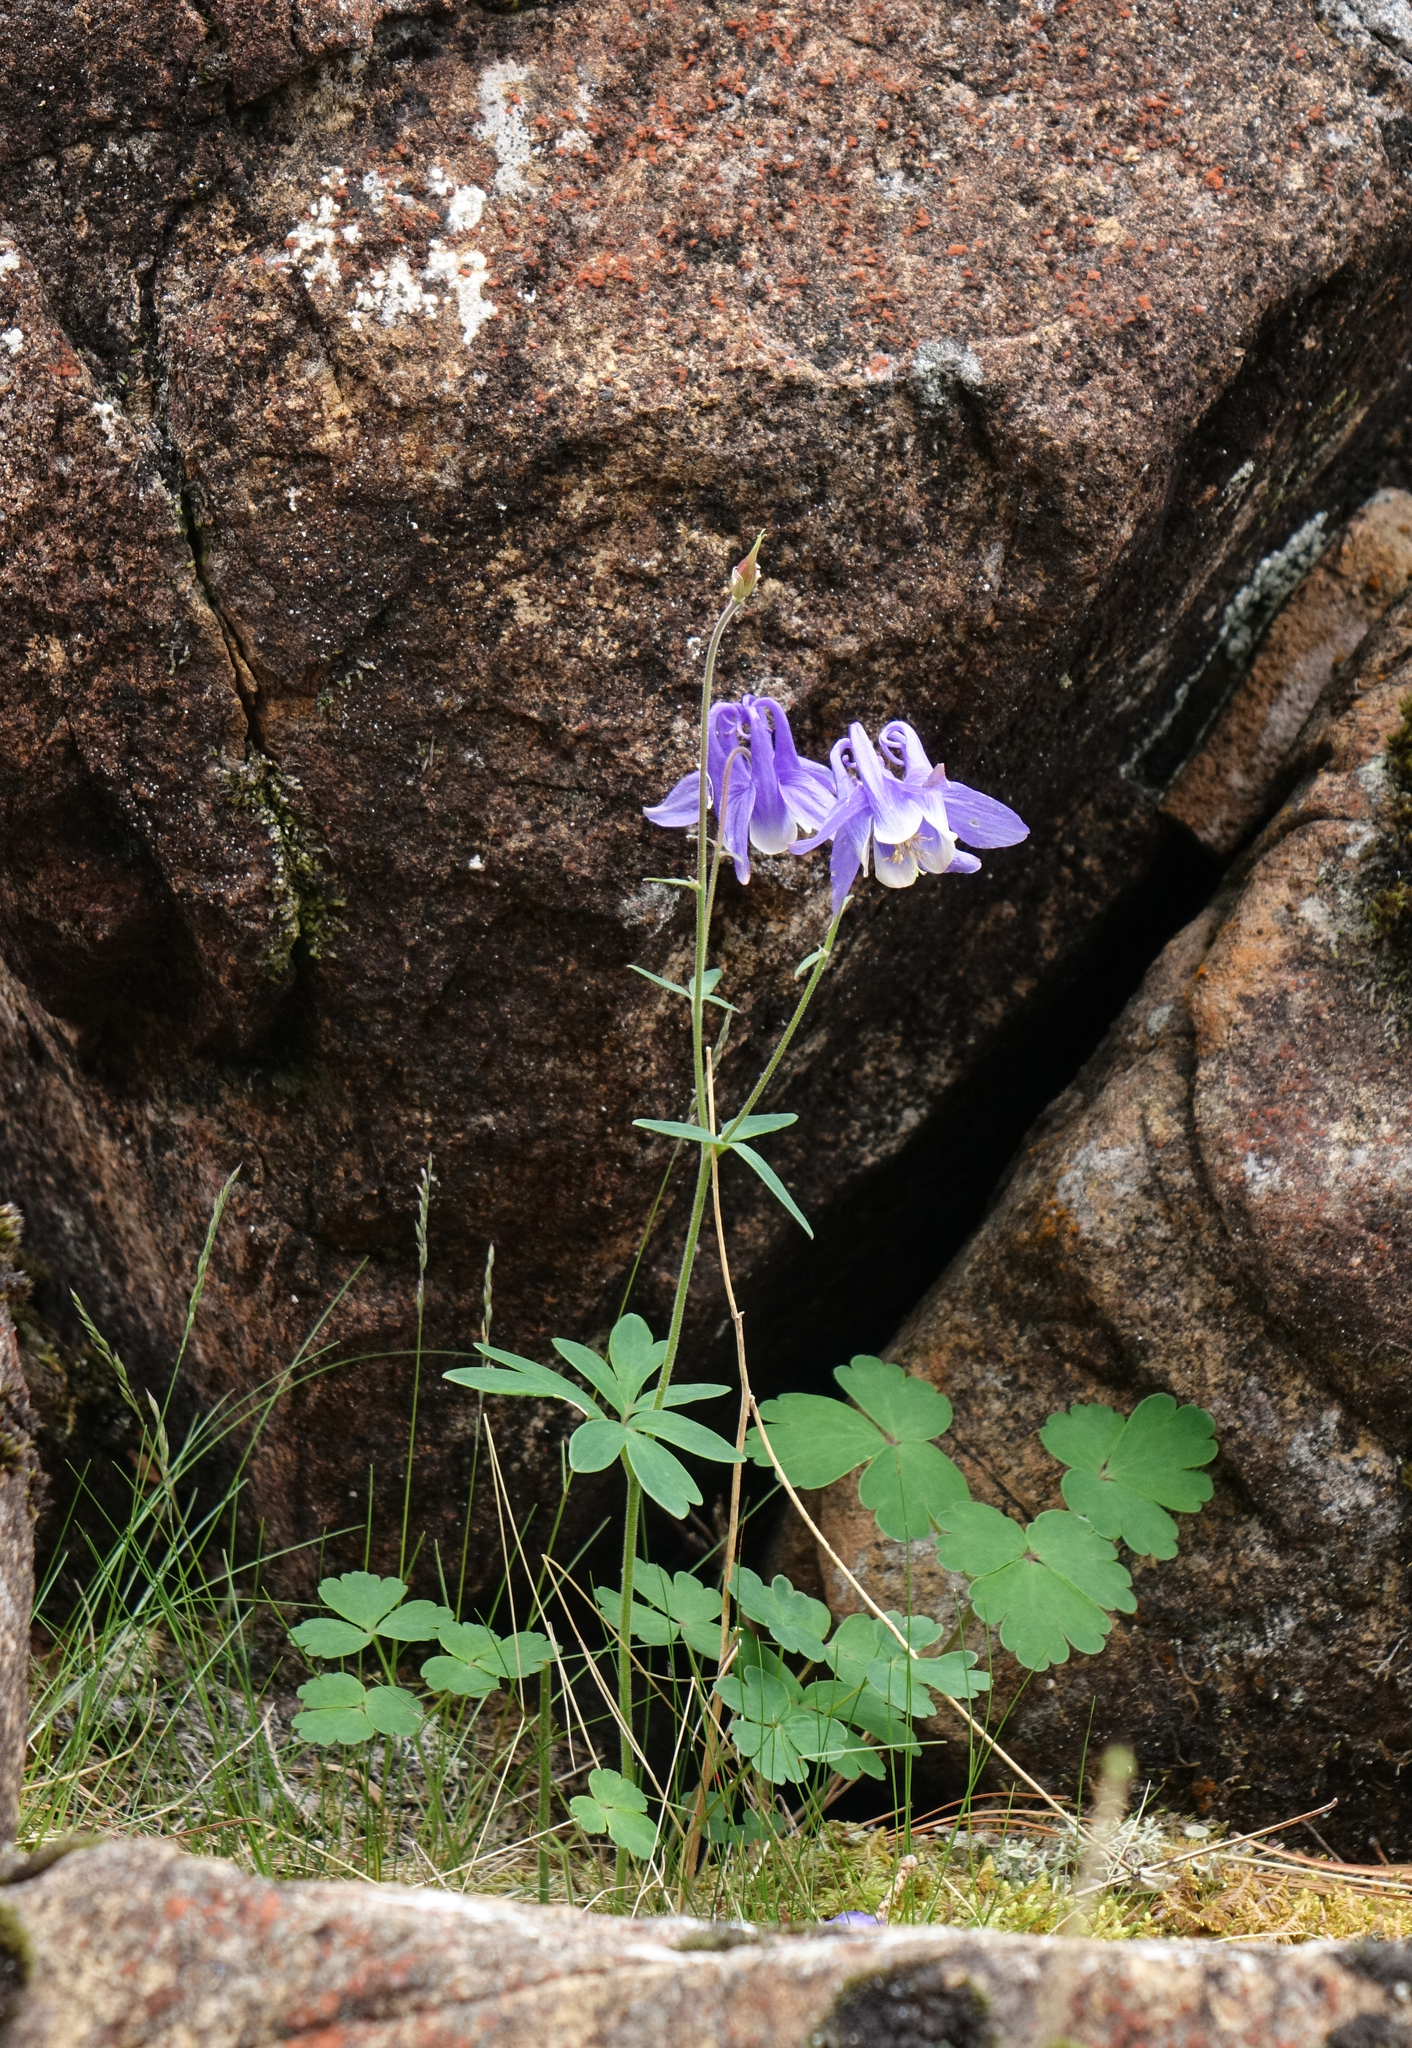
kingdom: Plantae
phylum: Tracheophyta
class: Magnoliopsida
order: Ranunculales
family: Ranunculaceae
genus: Aquilegia
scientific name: Aquilegia sibirica
